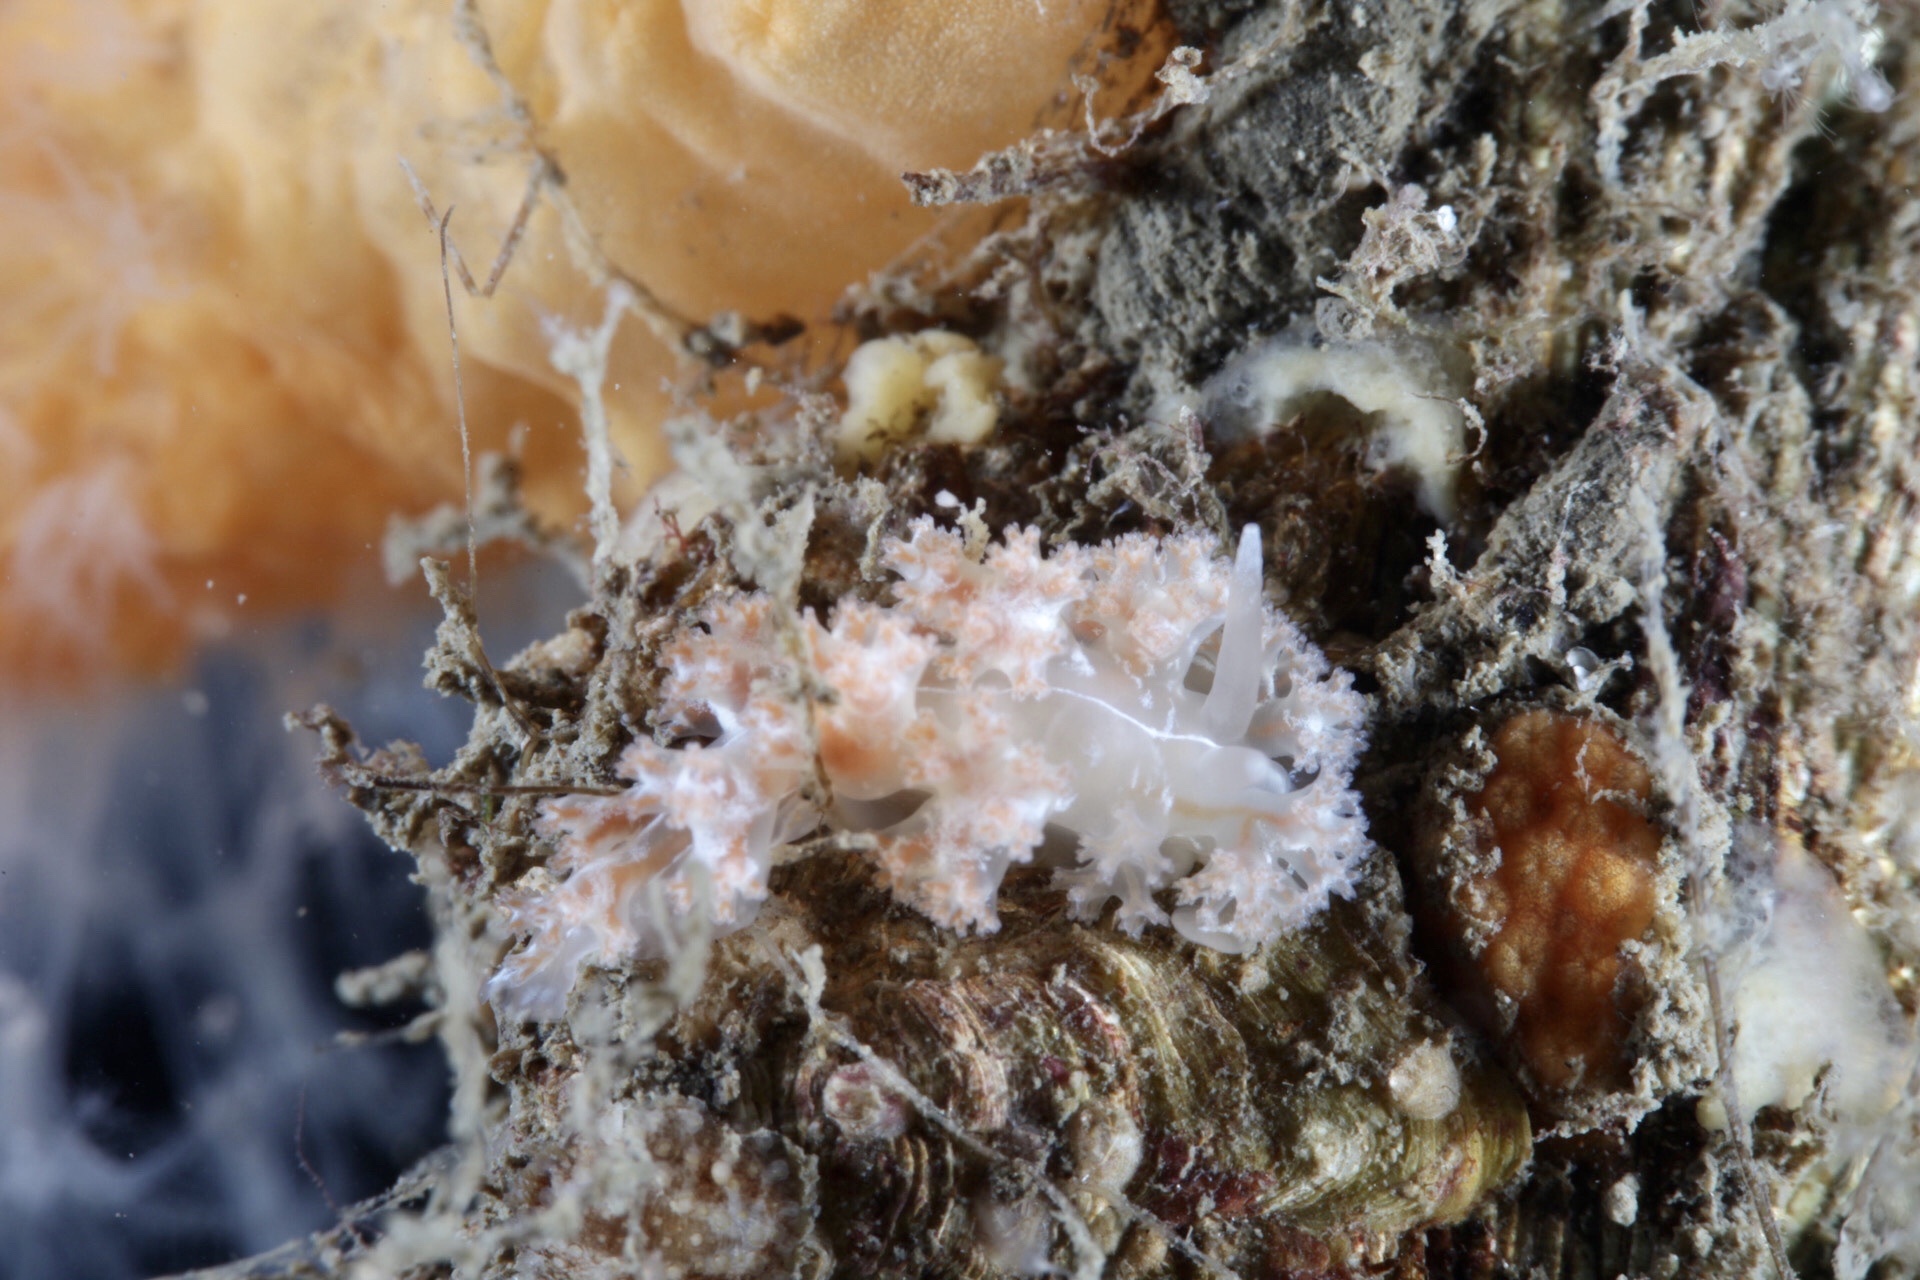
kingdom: Animalia
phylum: Mollusca
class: Gastropoda
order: Nudibranchia
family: Heroidae
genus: Hero
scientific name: Hero formosa
